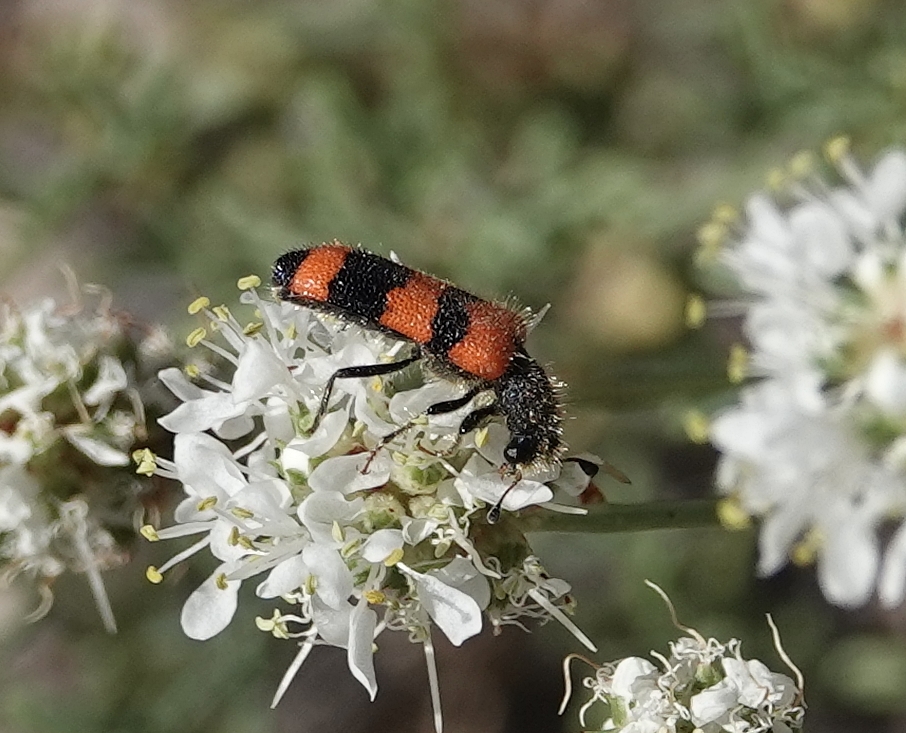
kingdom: Animalia
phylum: Arthropoda
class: Insecta
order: Coleoptera
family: Cleridae
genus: Trichodes
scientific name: Trichodes simulator
